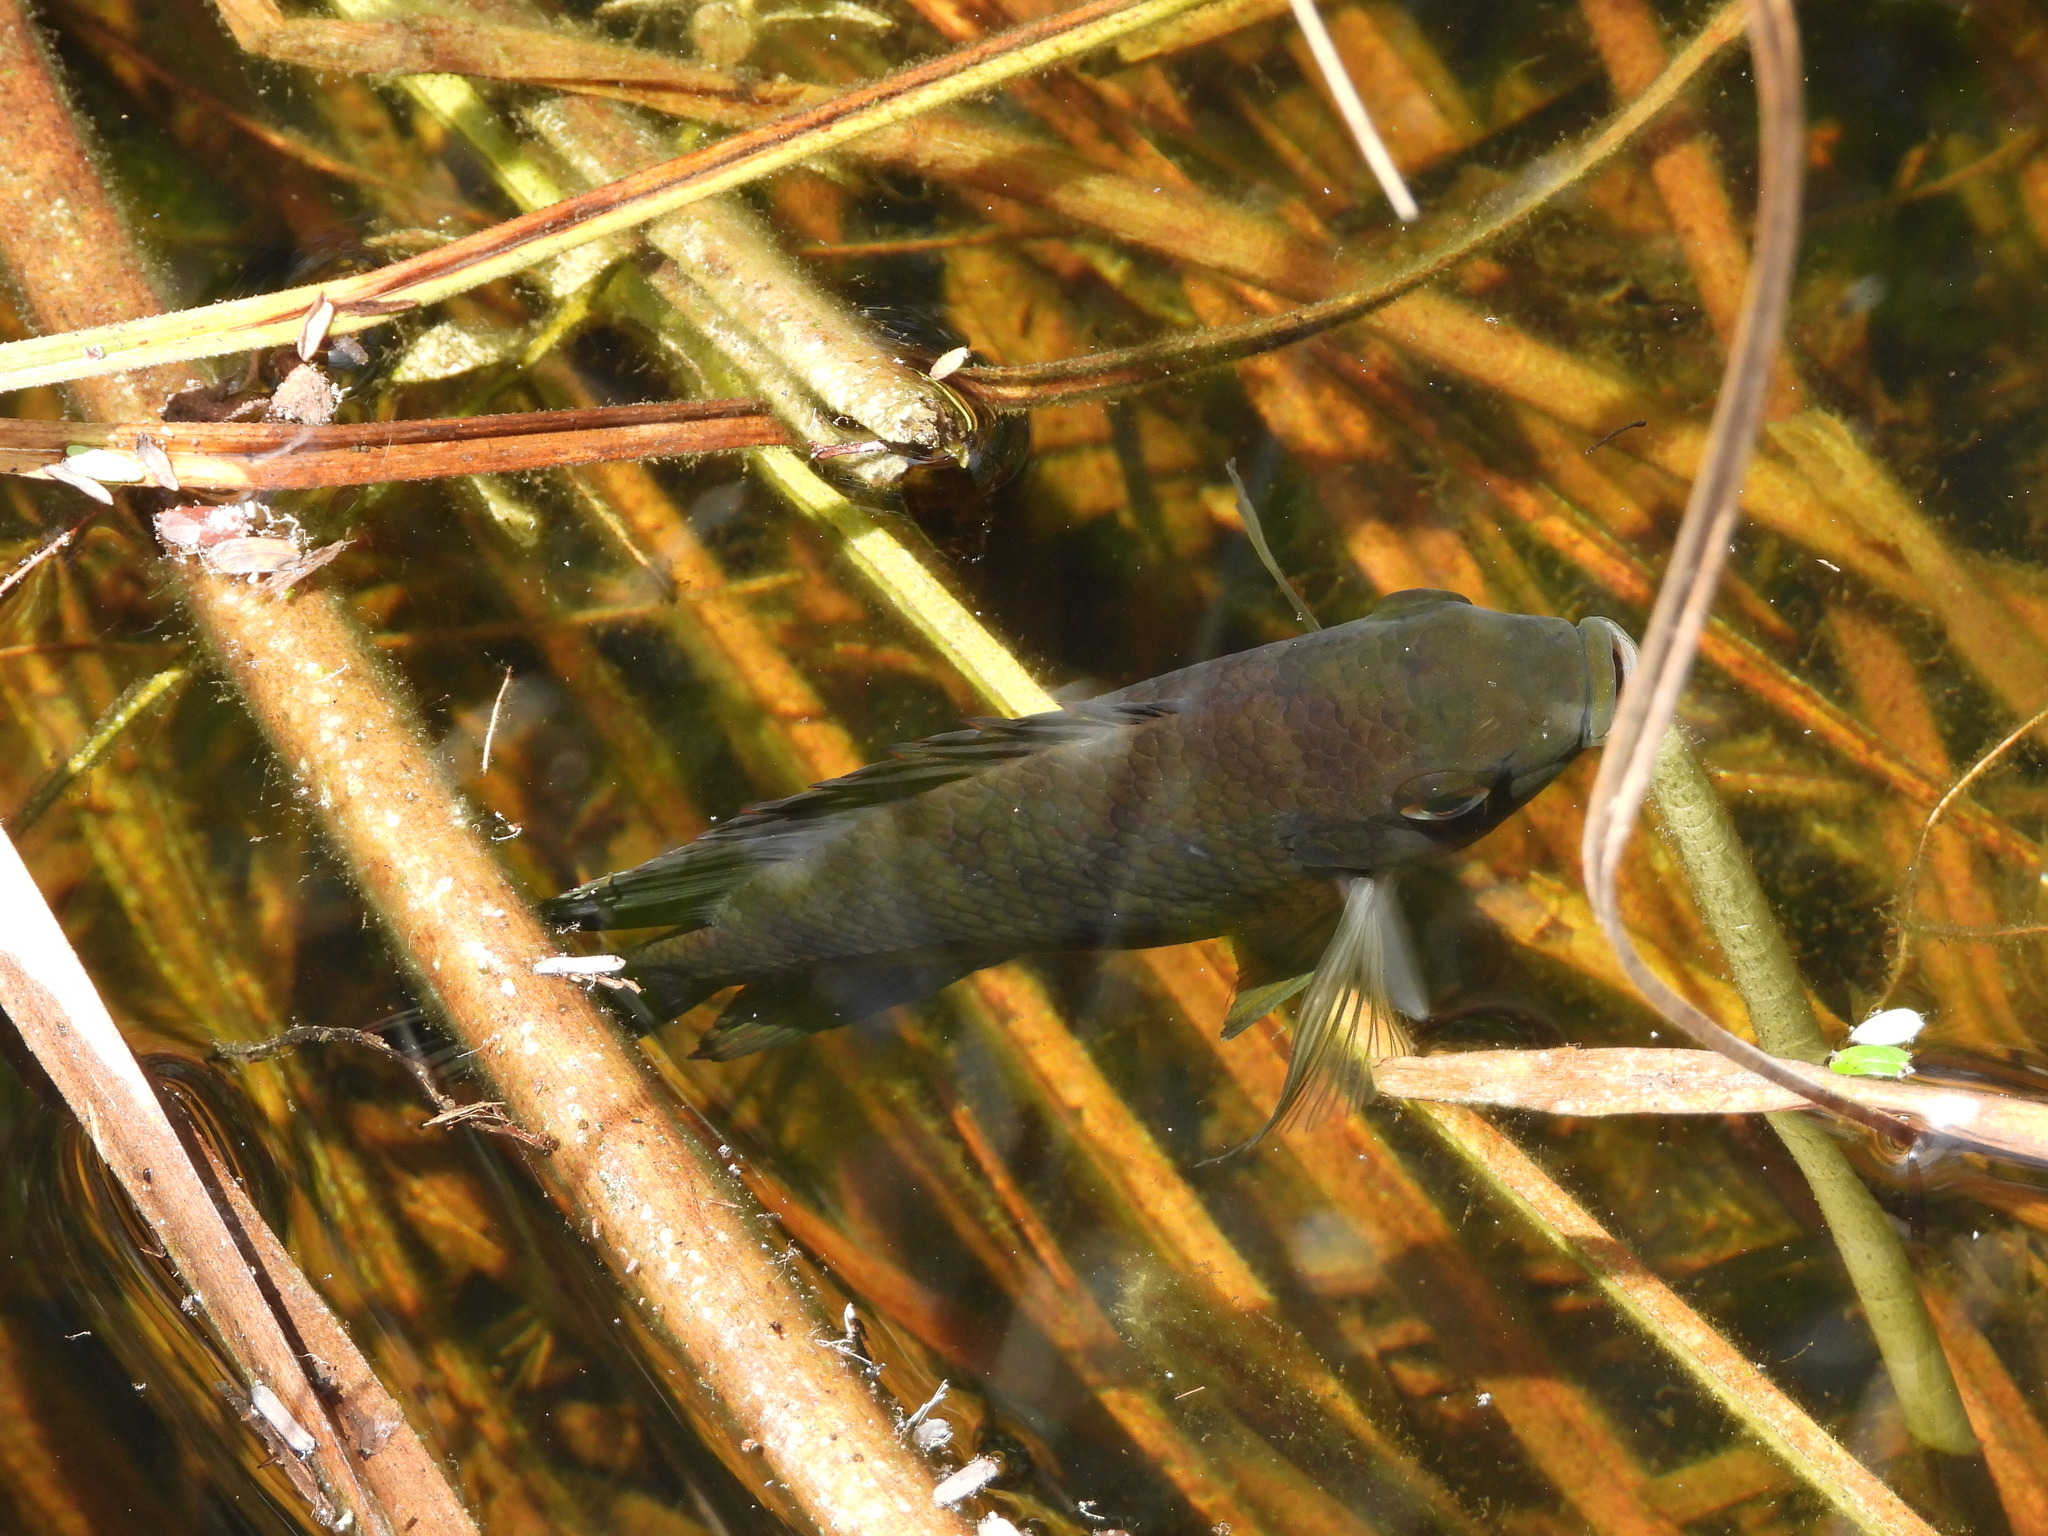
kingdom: Animalia
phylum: Chordata
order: Perciformes
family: Cichlidae
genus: Pelmatolapia
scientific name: Pelmatolapia mariae
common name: Spotted tilapia
